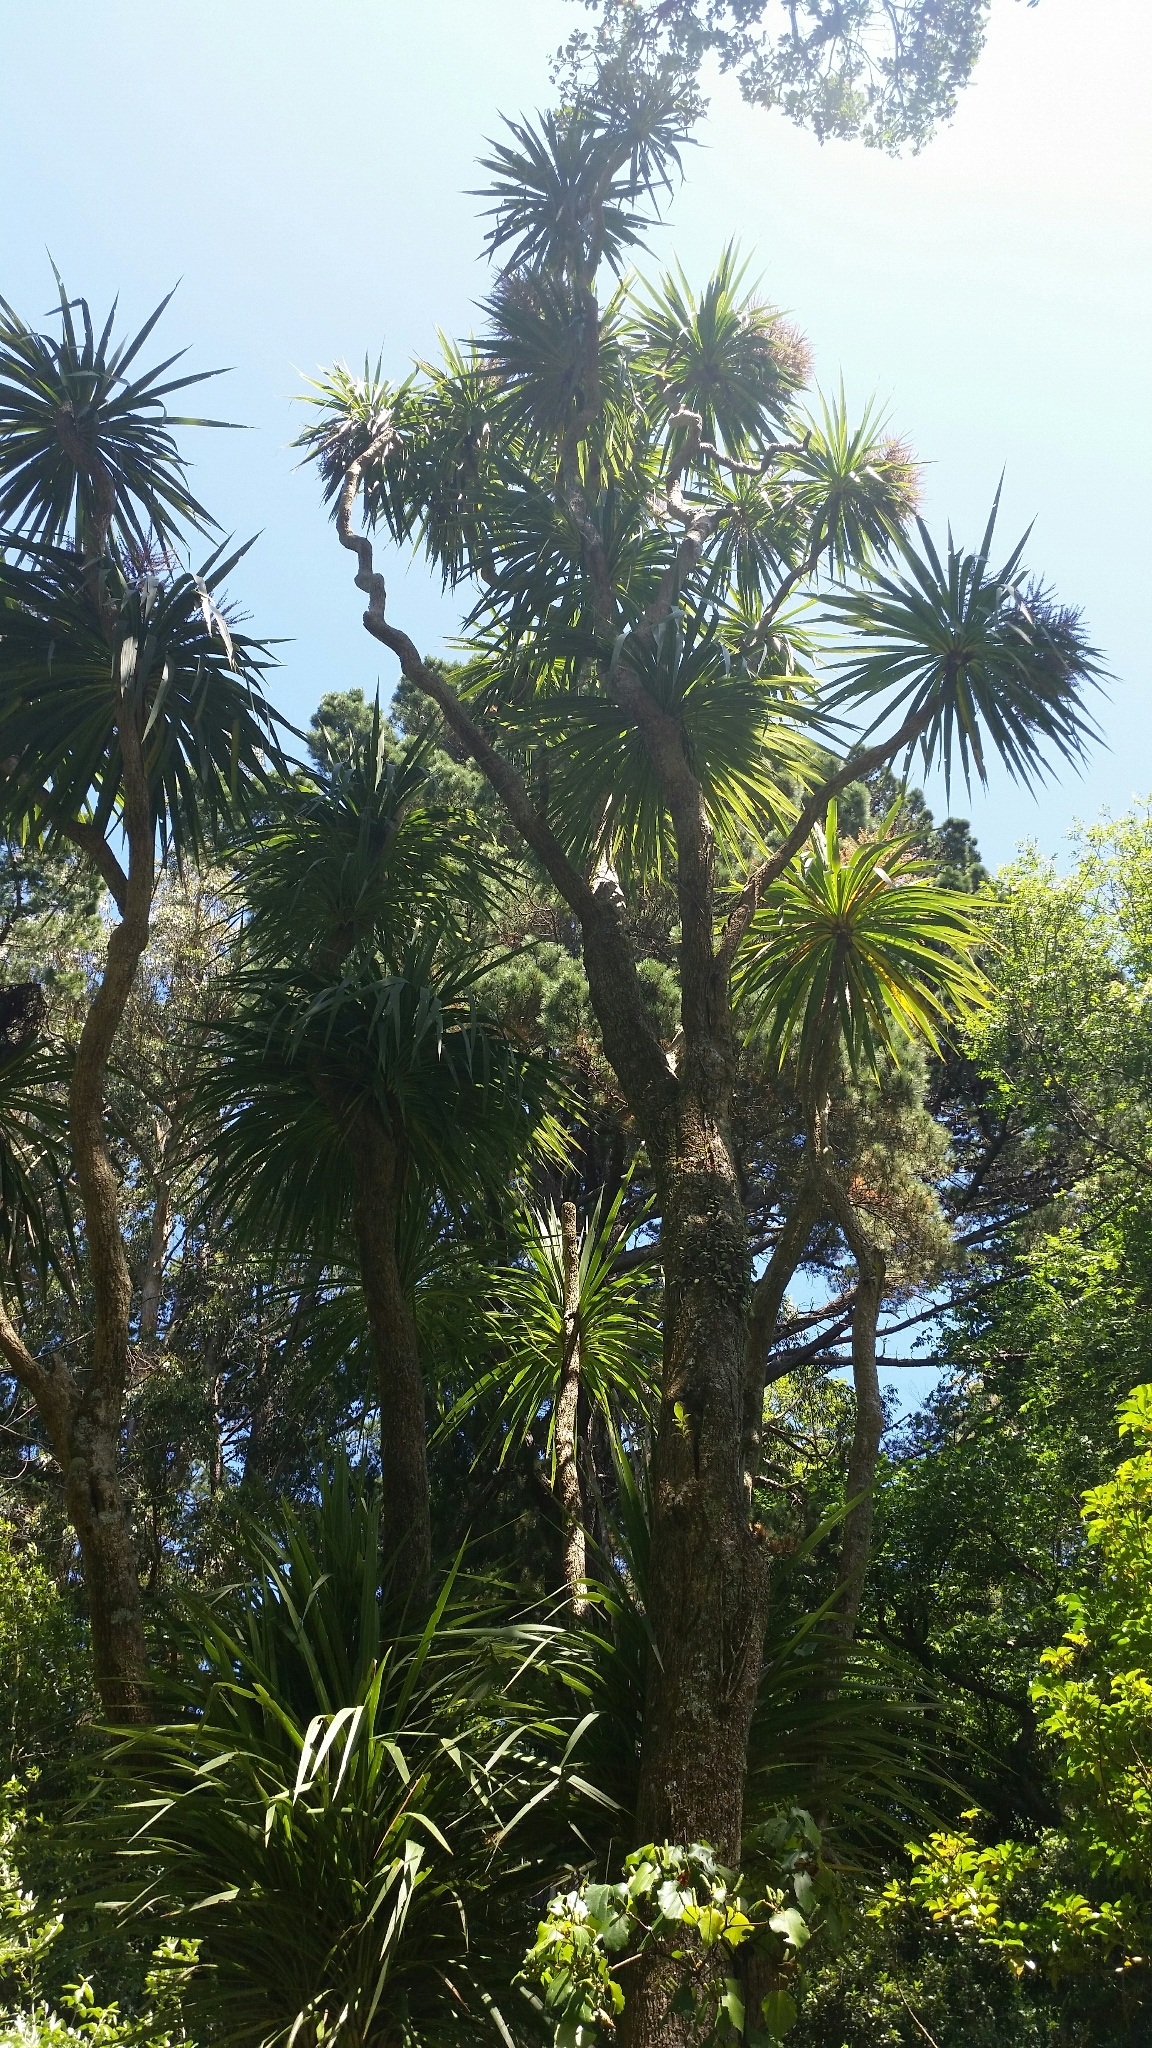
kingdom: Plantae
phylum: Tracheophyta
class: Liliopsida
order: Asparagales
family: Asparagaceae
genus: Cordyline
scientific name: Cordyline australis
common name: Cabbage-palm
